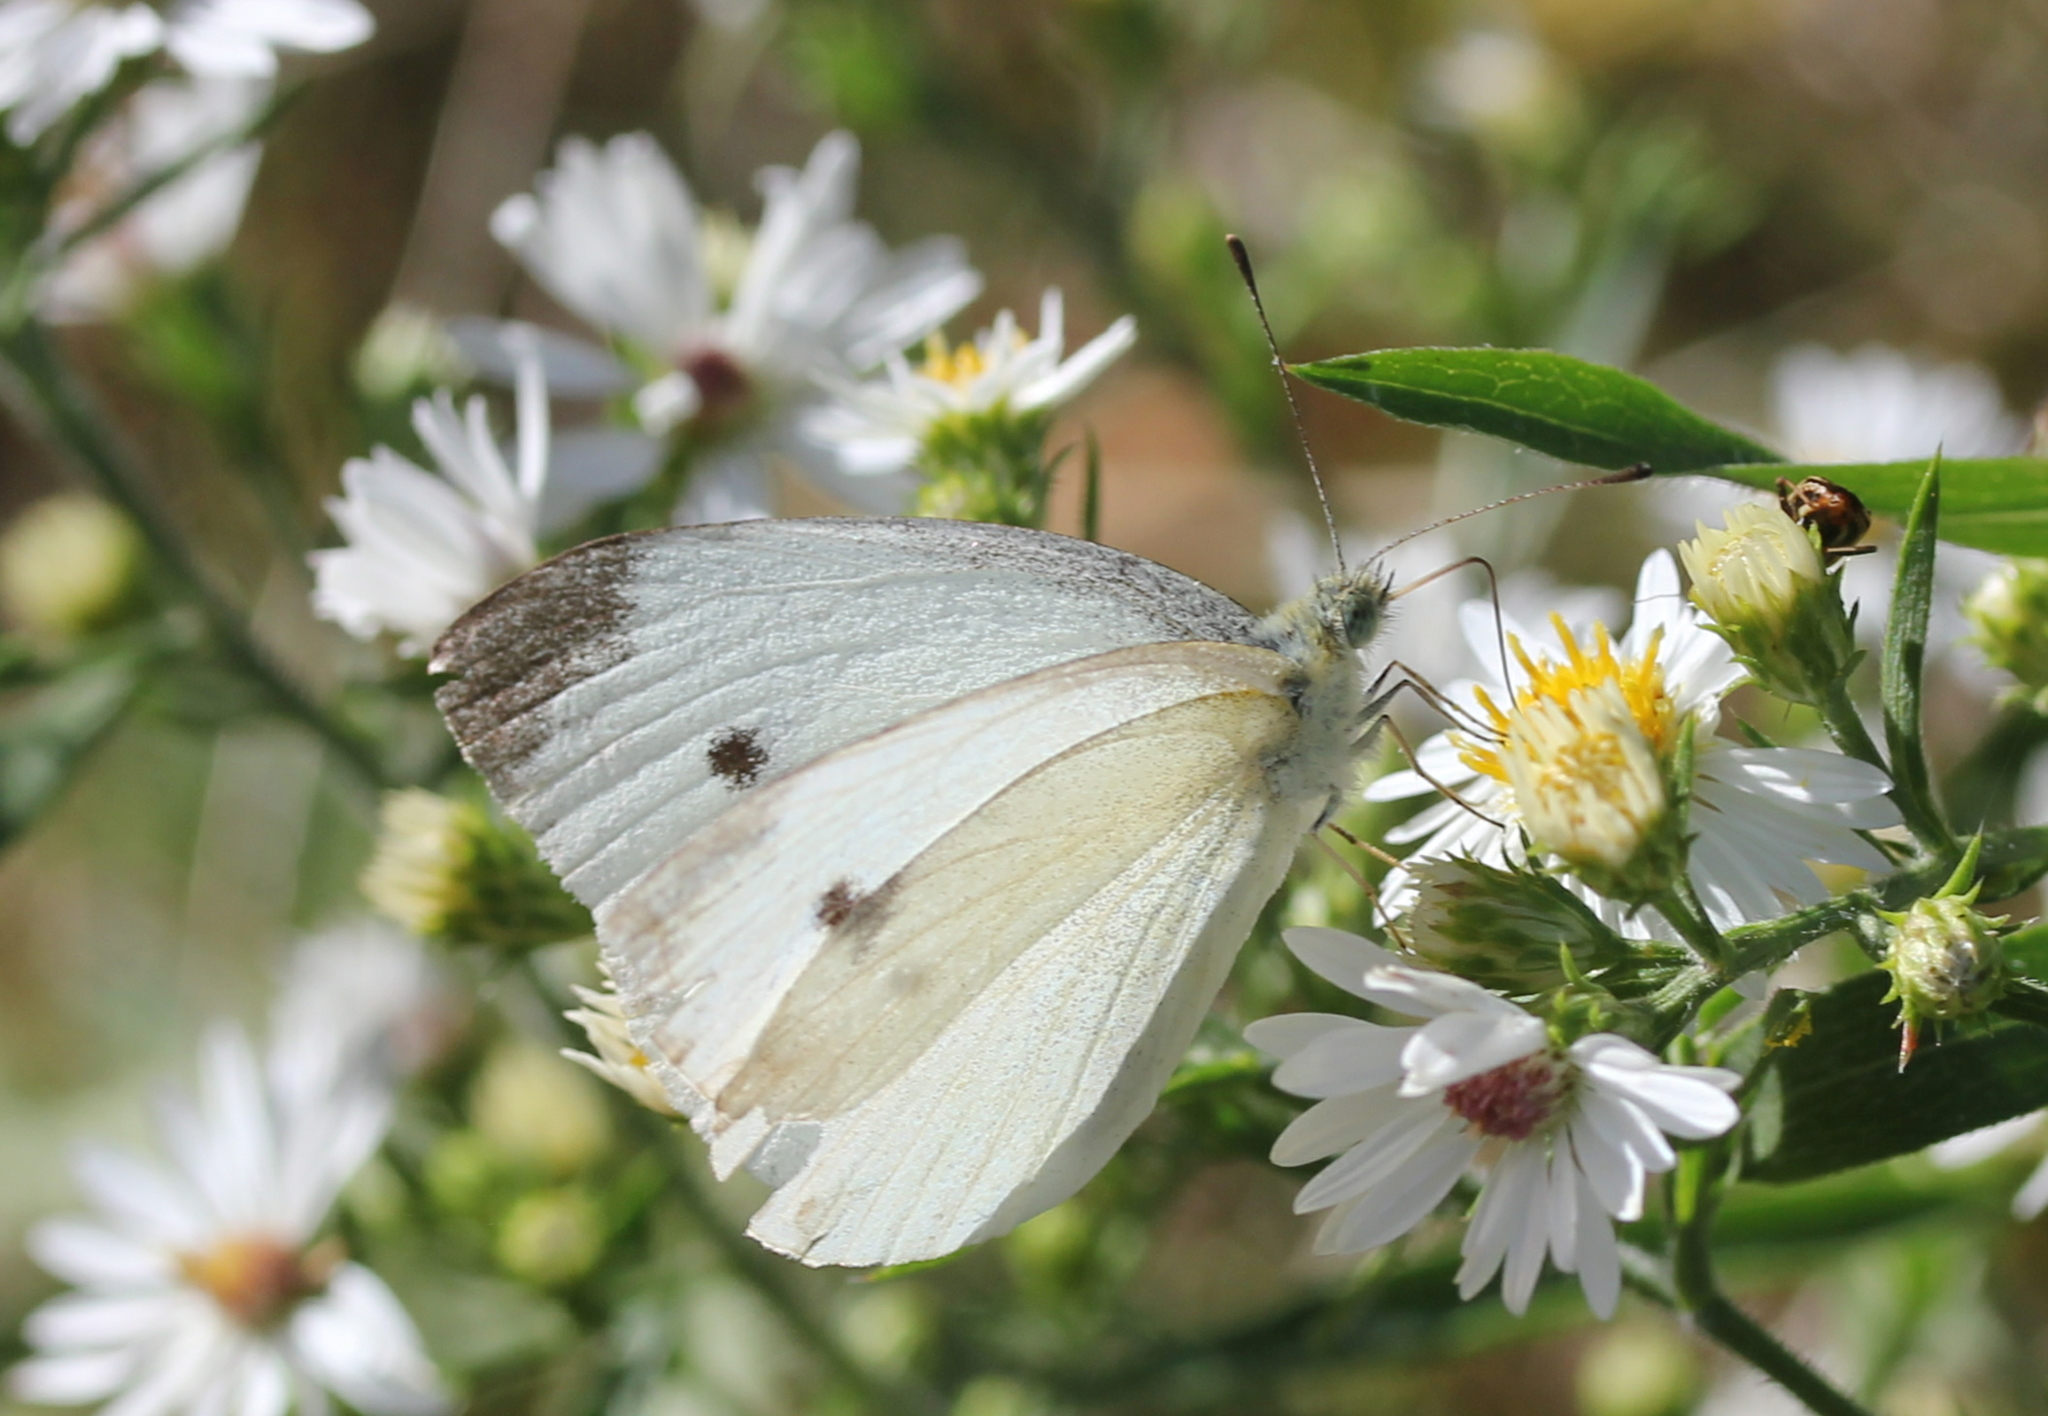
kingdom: Animalia
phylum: Arthropoda
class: Insecta
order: Lepidoptera
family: Pieridae
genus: Pieris
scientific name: Pieris rapae
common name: Small white
